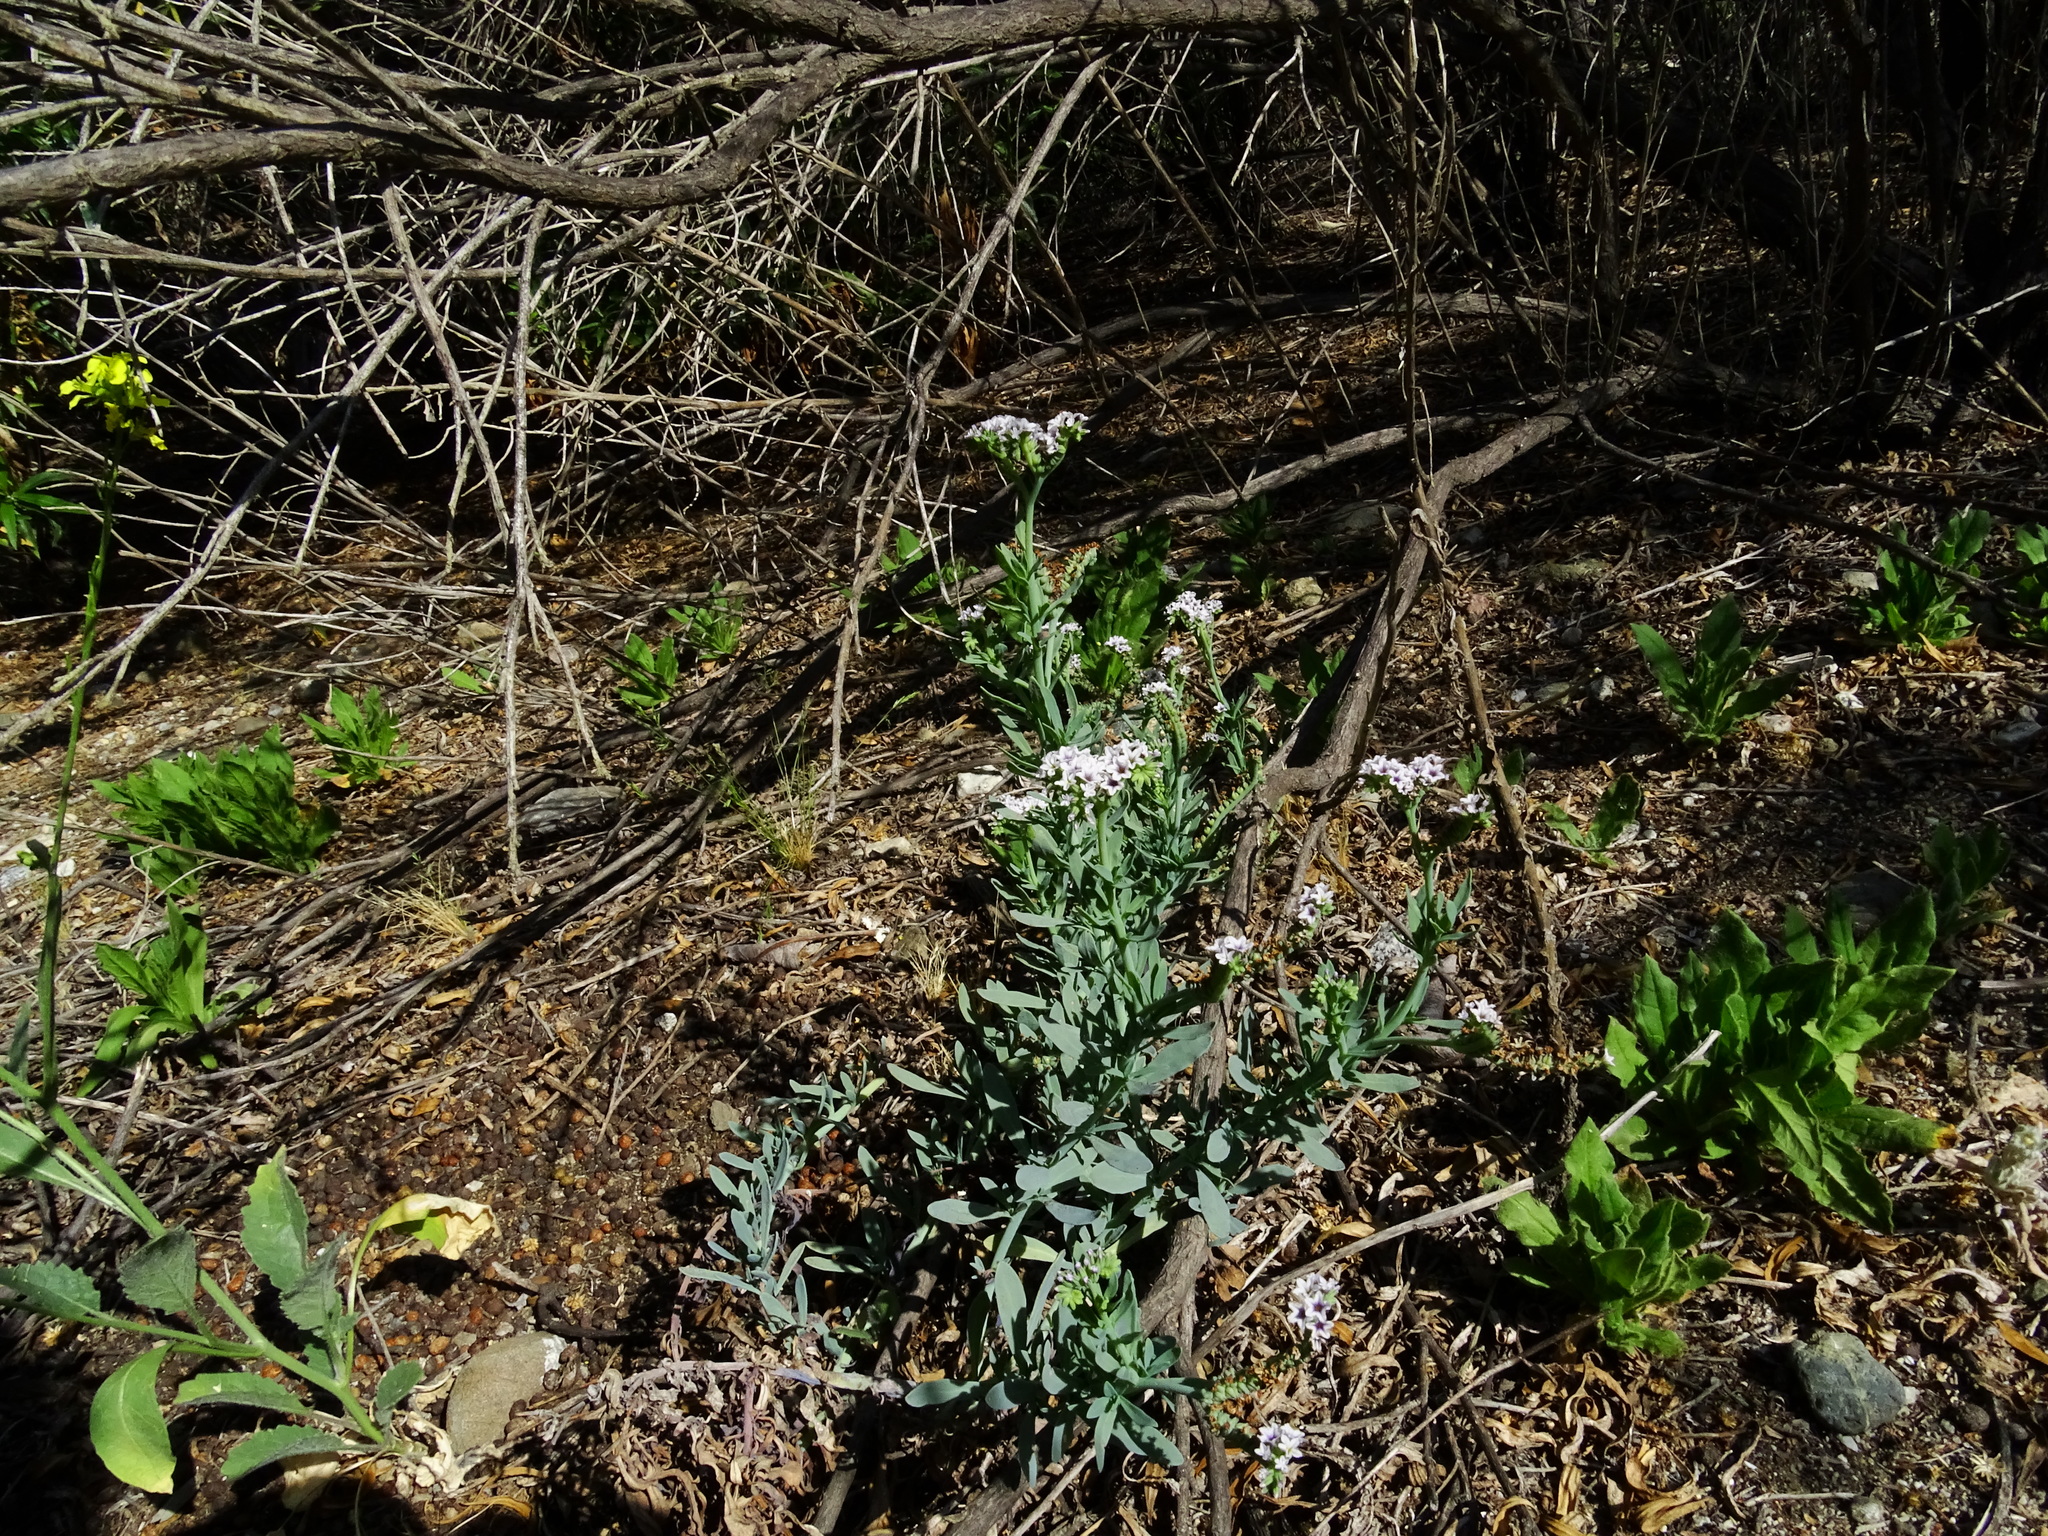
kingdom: Plantae
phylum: Tracheophyta
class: Magnoliopsida
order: Boraginales
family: Heliotropiaceae
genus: Heliotropium
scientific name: Heliotropium curassavicum
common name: Seaside heliotrope
